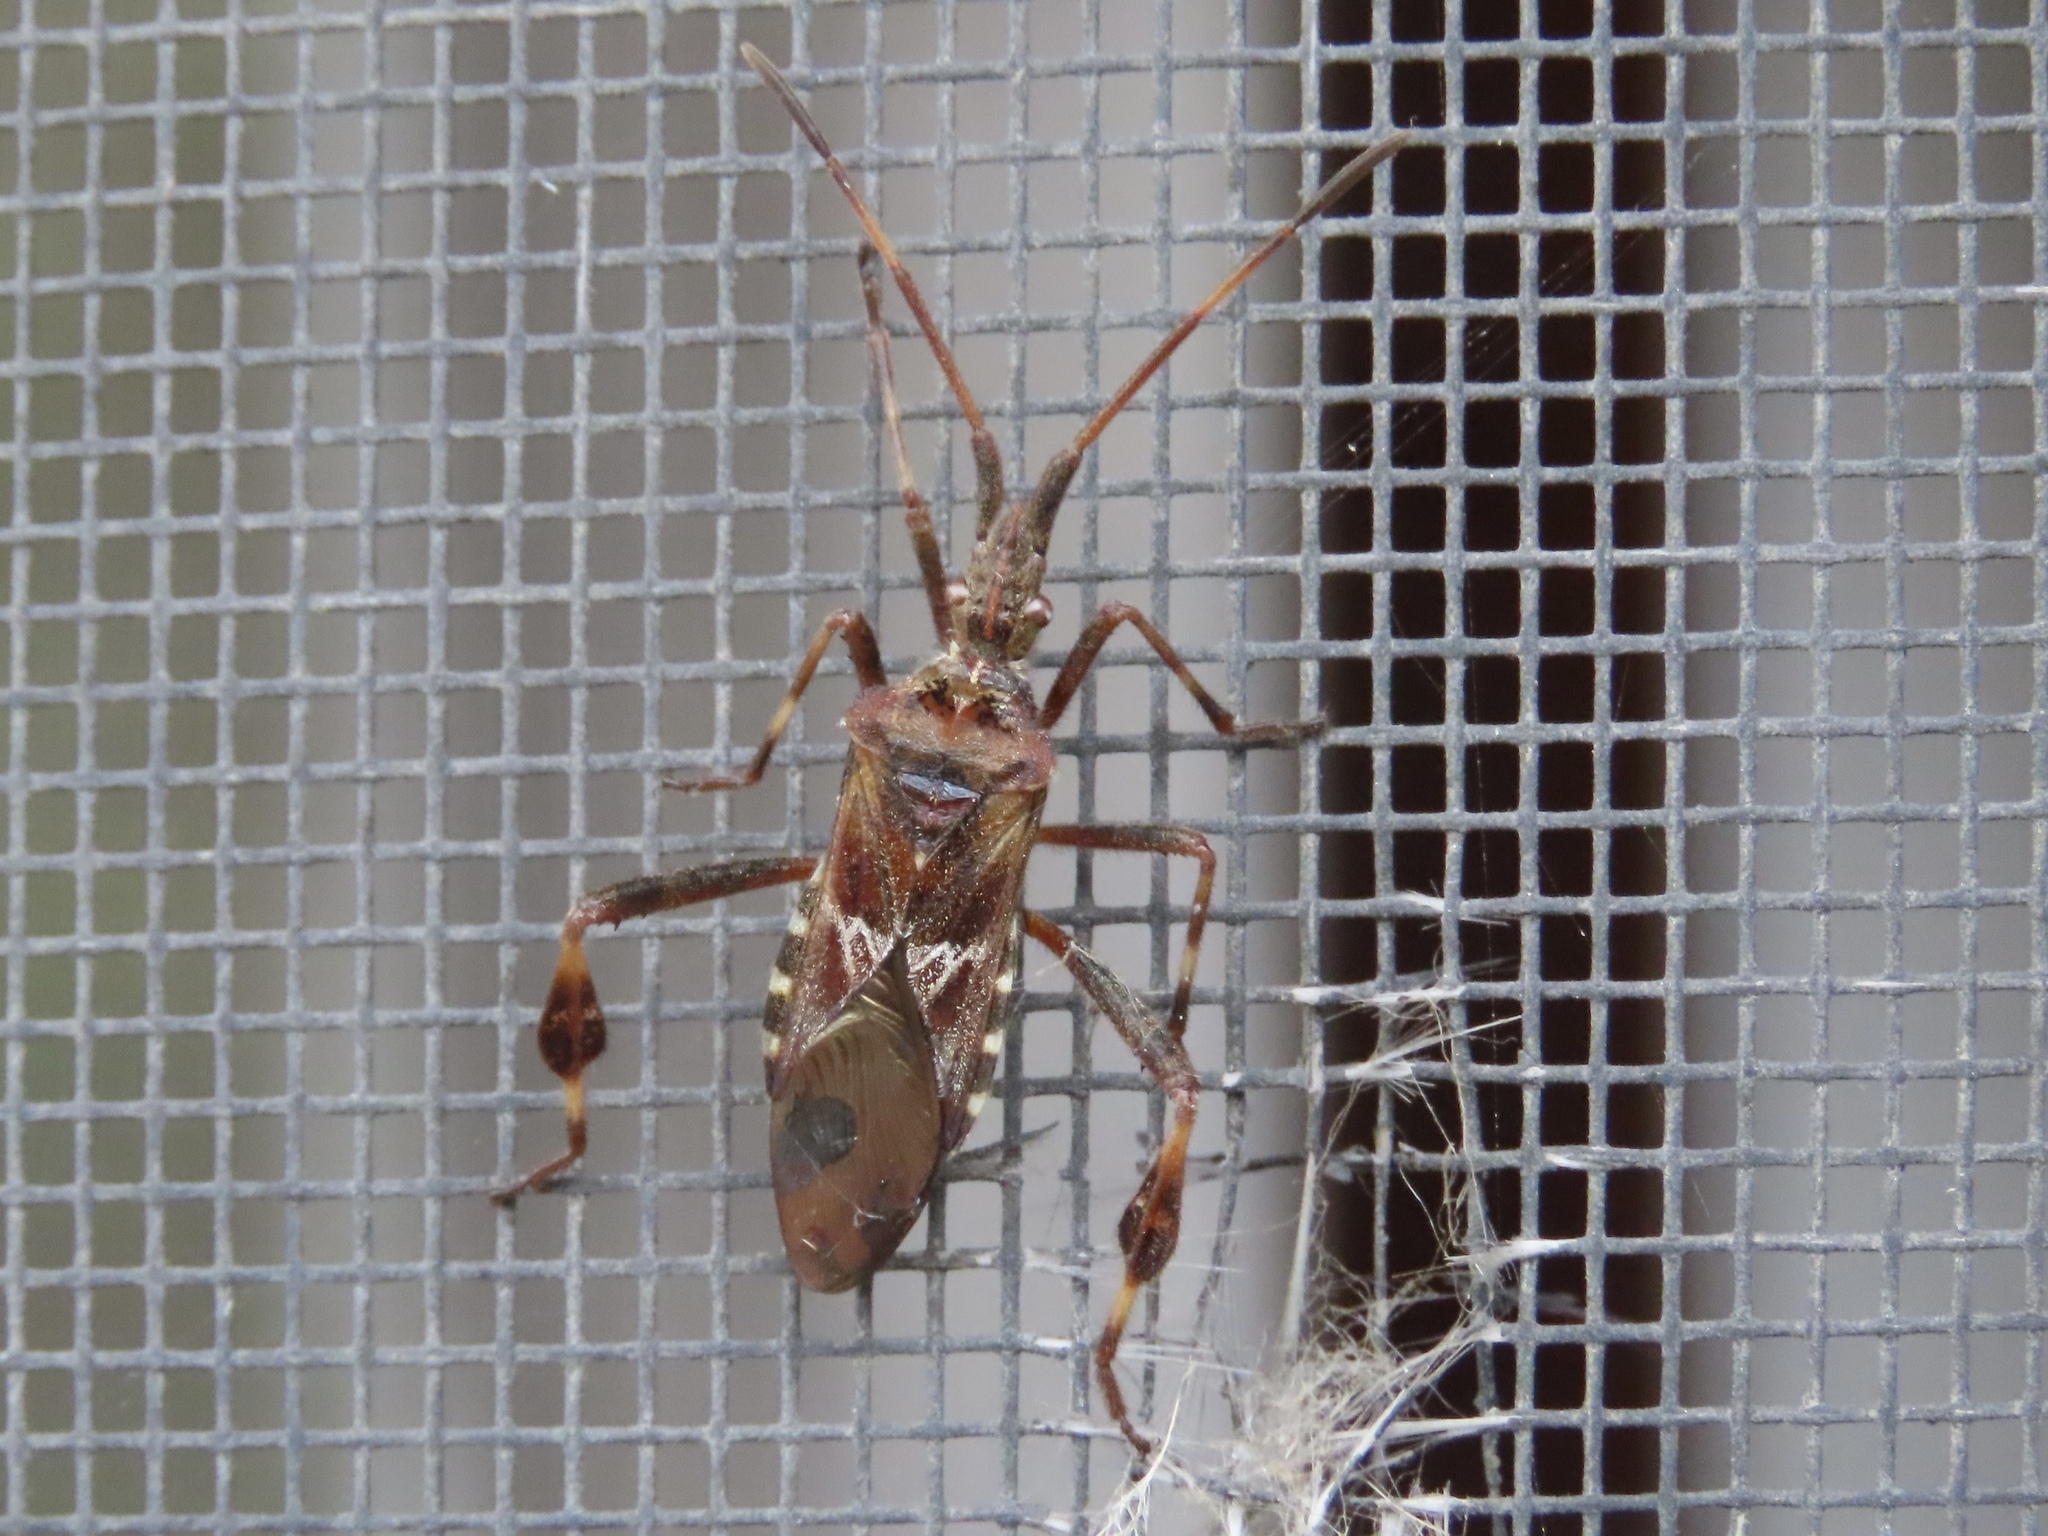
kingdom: Animalia
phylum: Arthropoda
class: Insecta
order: Hemiptera
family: Coreidae
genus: Leptoglossus
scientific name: Leptoglossus occidentalis
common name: Western conifer-seed bug
